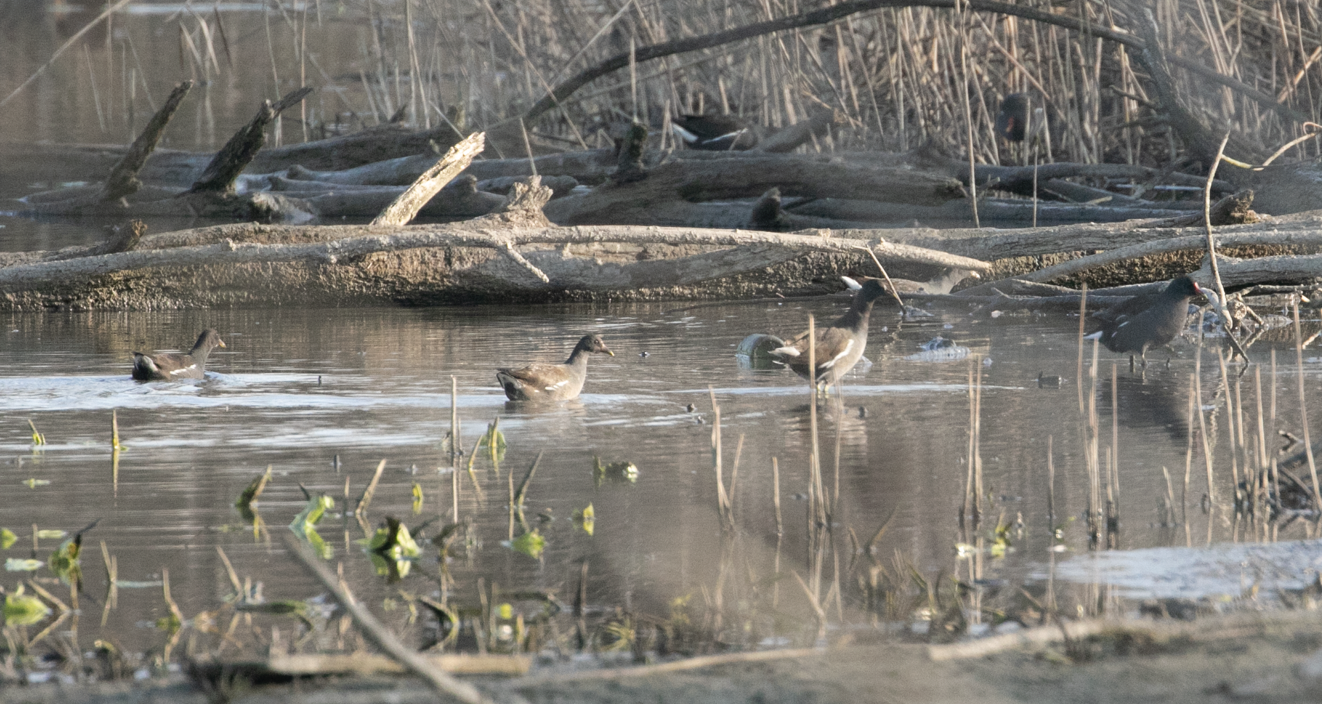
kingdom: Animalia
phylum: Chordata
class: Aves
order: Gruiformes
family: Rallidae
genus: Gallinula
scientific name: Gallinula chloropus
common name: Common moorhen
